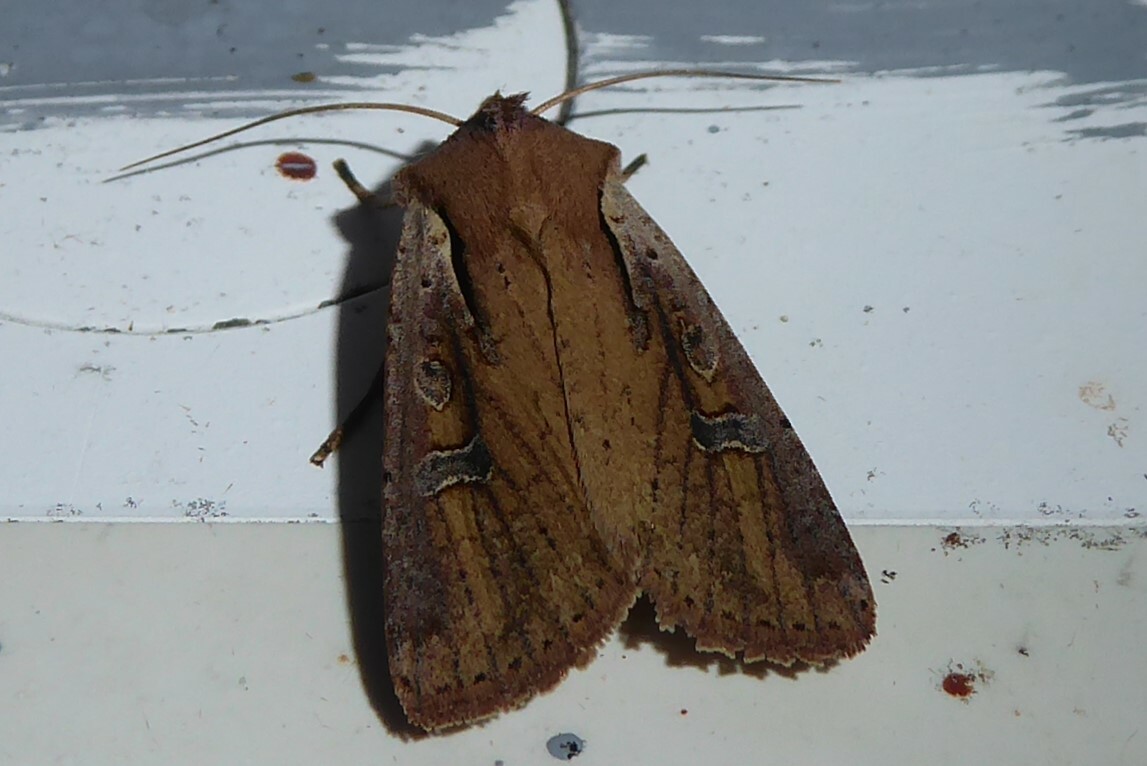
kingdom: Animalia
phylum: Arthropoda
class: Insecta
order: Lepidoptera
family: Noctuidae
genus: Ichneutica
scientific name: Ichneutica atristriga
